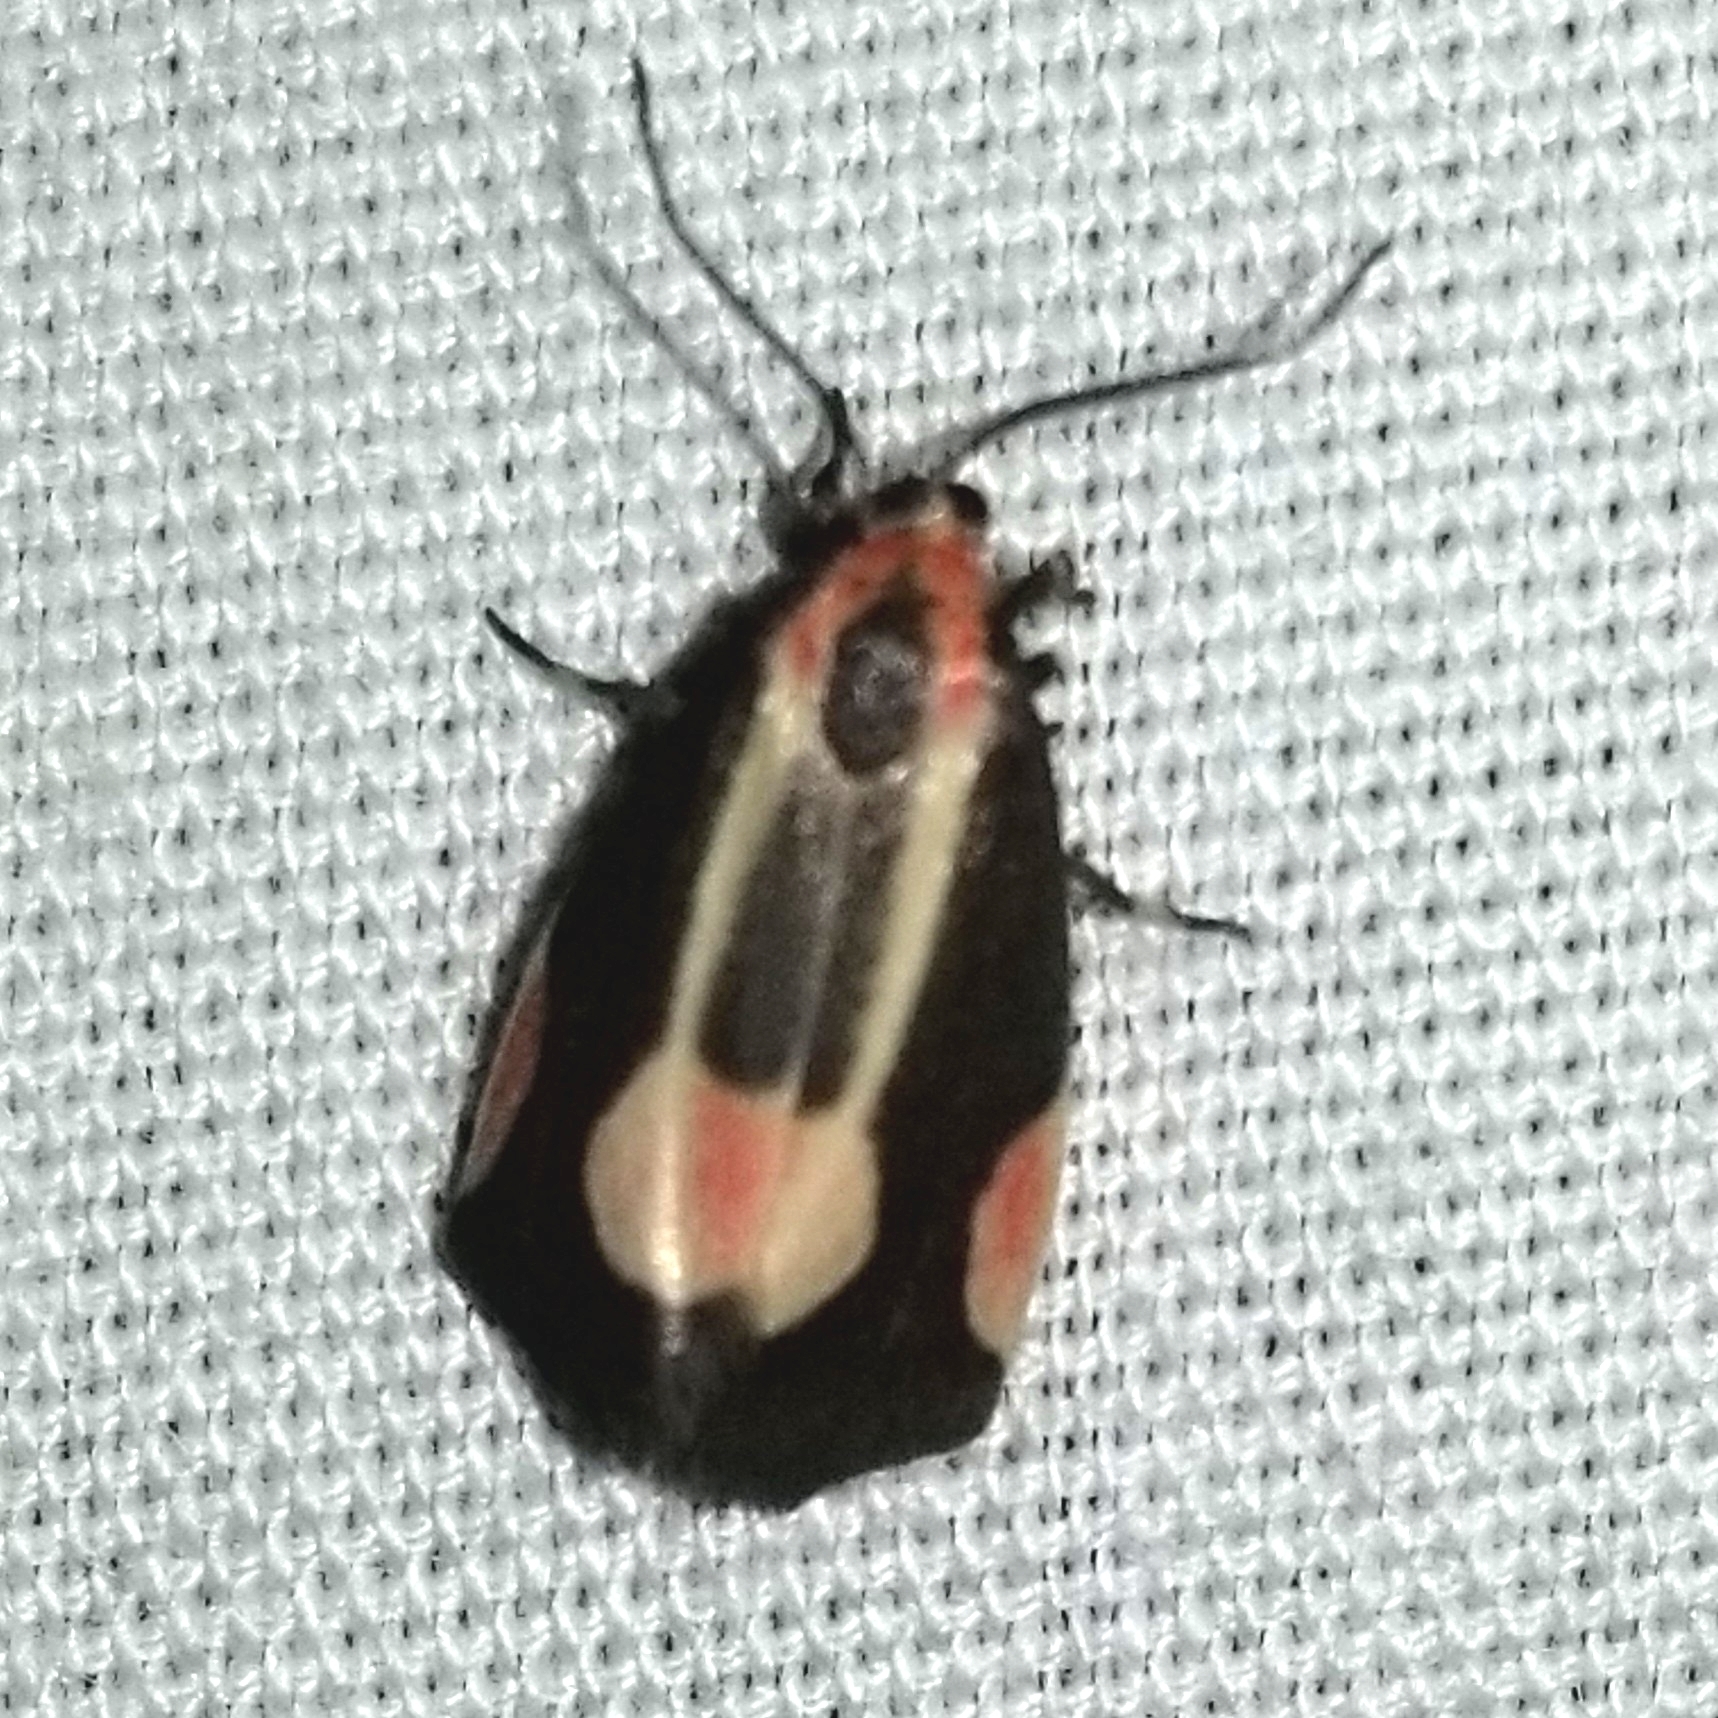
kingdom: Animalia
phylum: Arthropoda
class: Insecta
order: Lepidoptera
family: Erebidae
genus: Cisthene
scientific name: Cisthene packardii
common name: Packard's lichen moth
